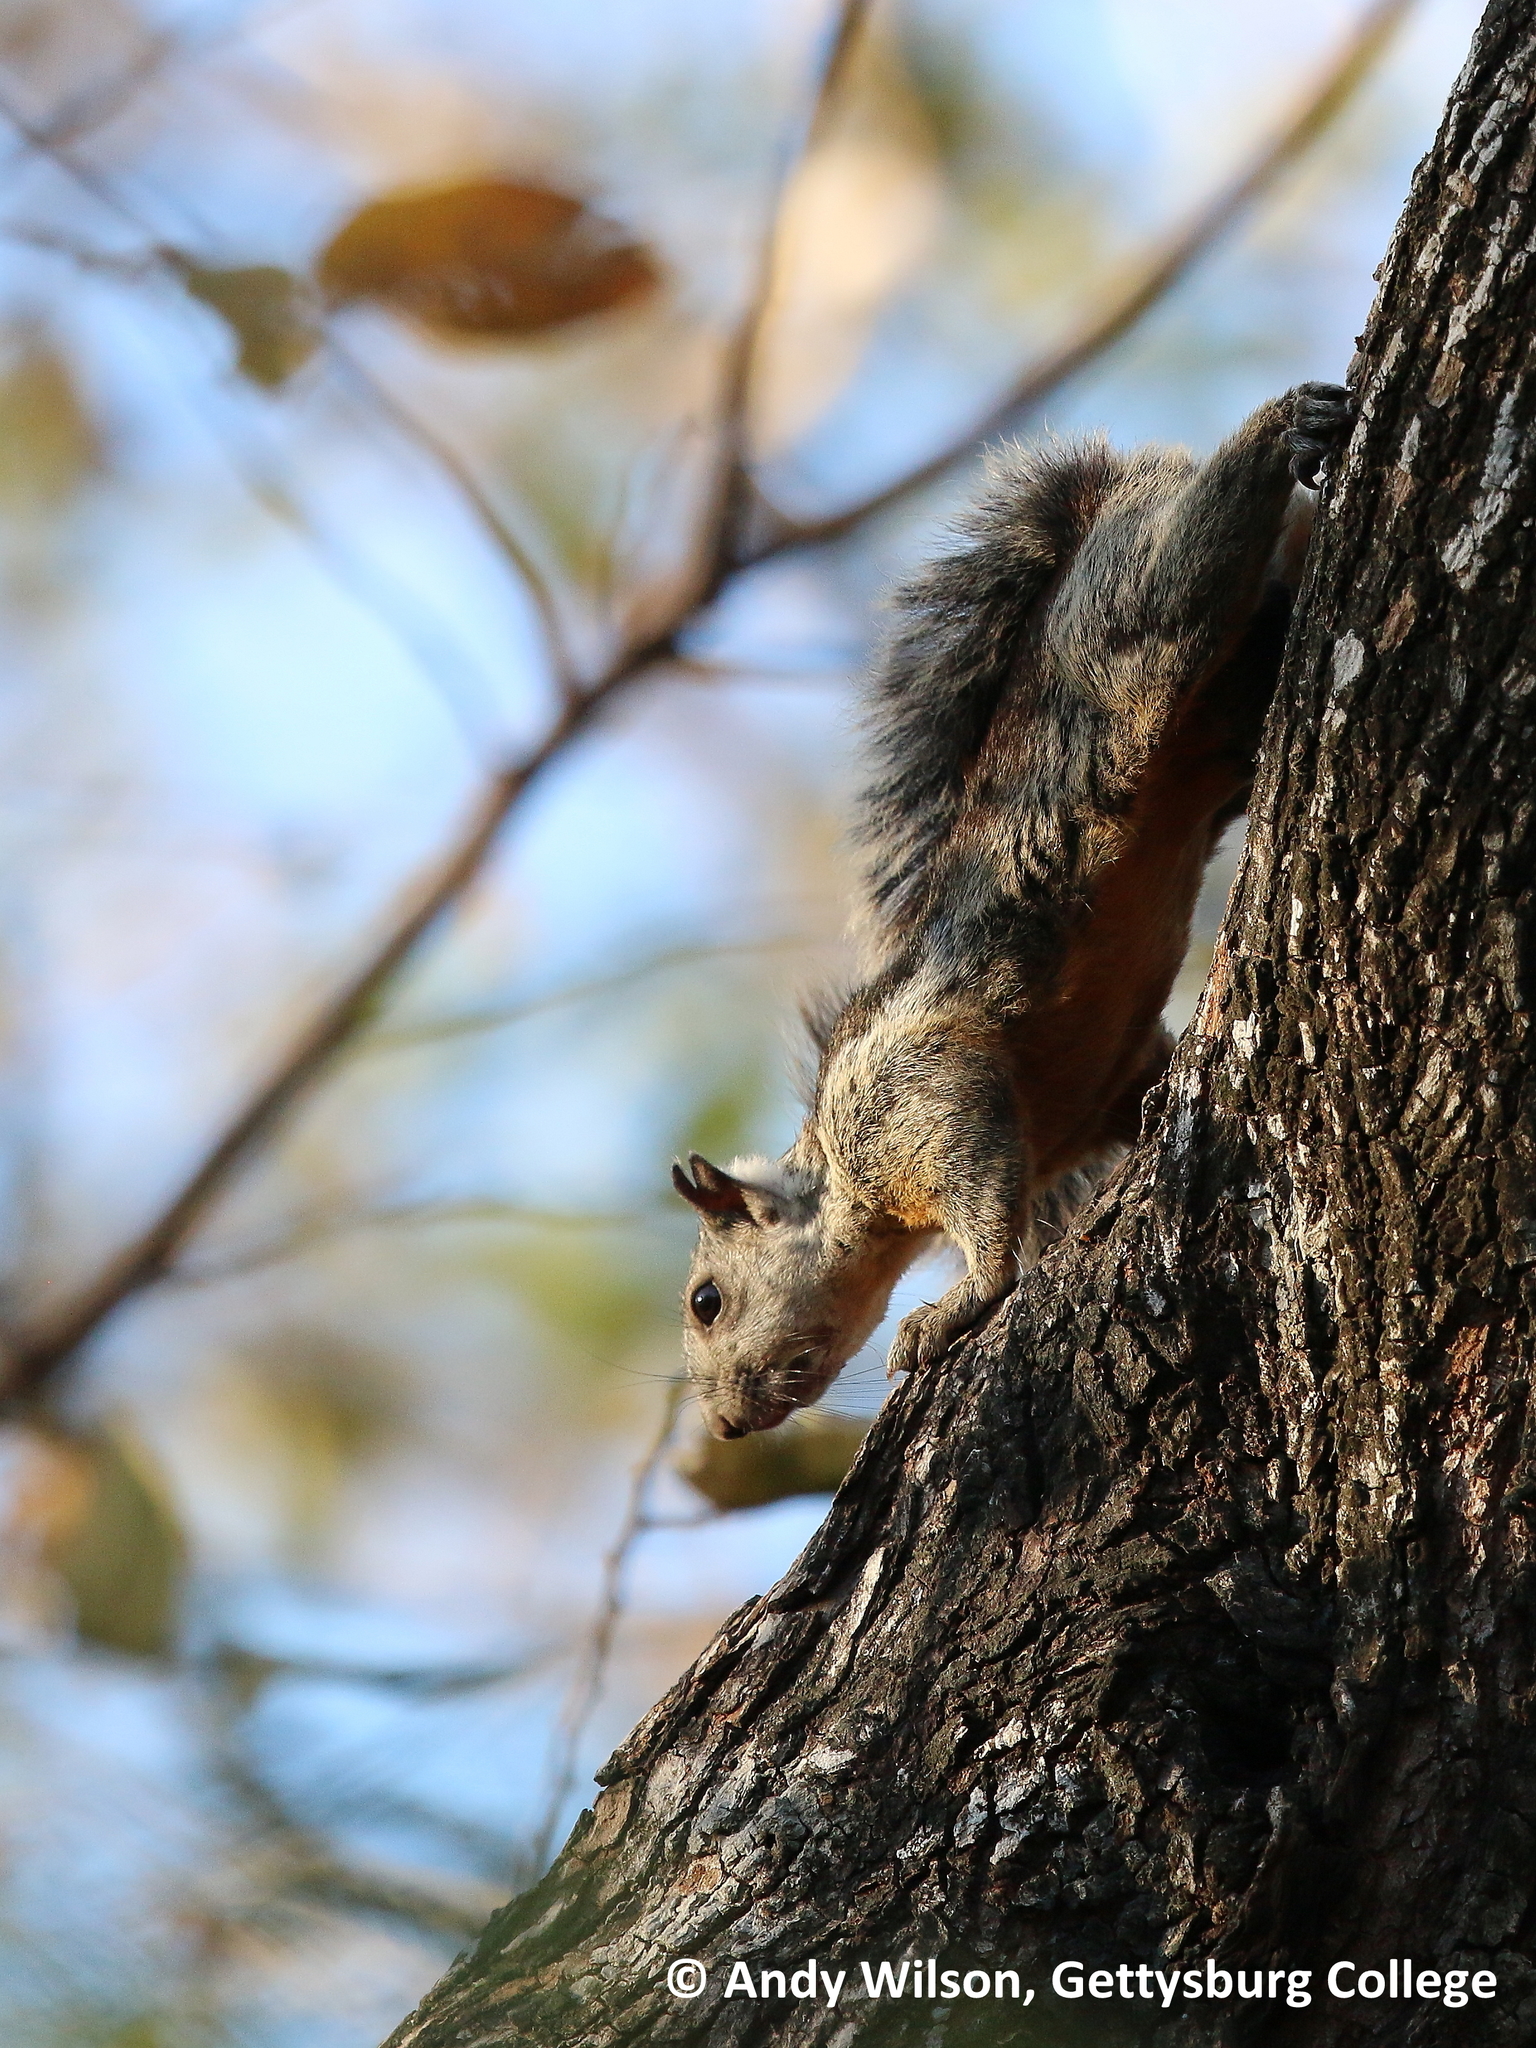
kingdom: Animalia
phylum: Chordata
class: Mammalia
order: Rodentia
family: Sciuridae
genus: Sciurus
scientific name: Sciurus variegatoides
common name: Variegated squirrel
